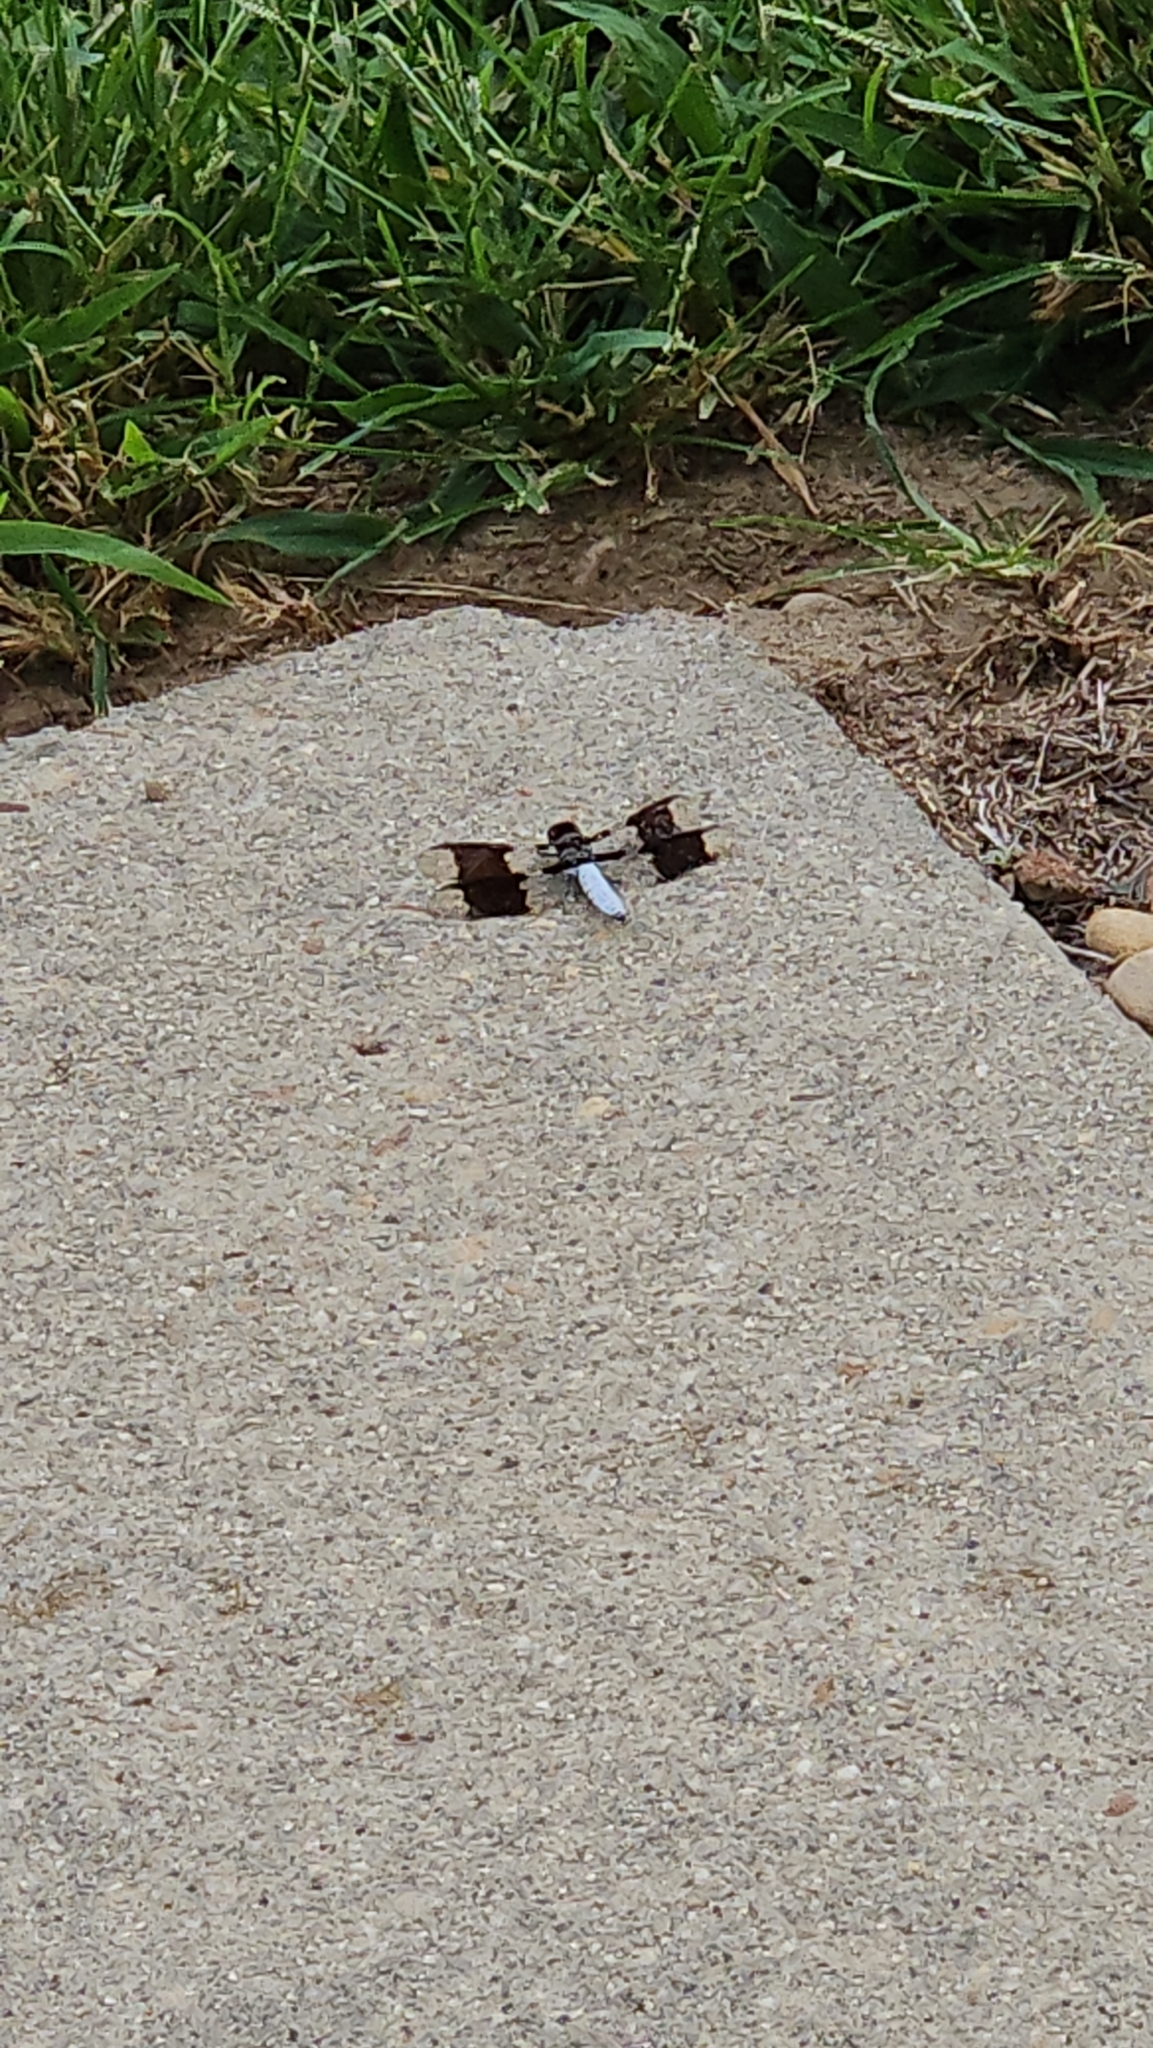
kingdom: Animalia
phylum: Arthropoda
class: Insecta
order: Odonata
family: Libellulidae
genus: Plathemis
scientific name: Plathemis lydia
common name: Common whitetail
